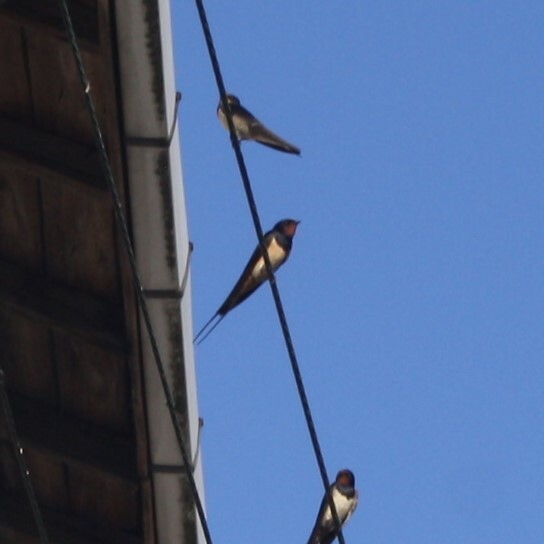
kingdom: Animalia
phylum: Chordata
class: Aves
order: Passeriformes
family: Hirundinidae
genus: Hirundo
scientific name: Hirundo rustica
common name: Barn swallow
